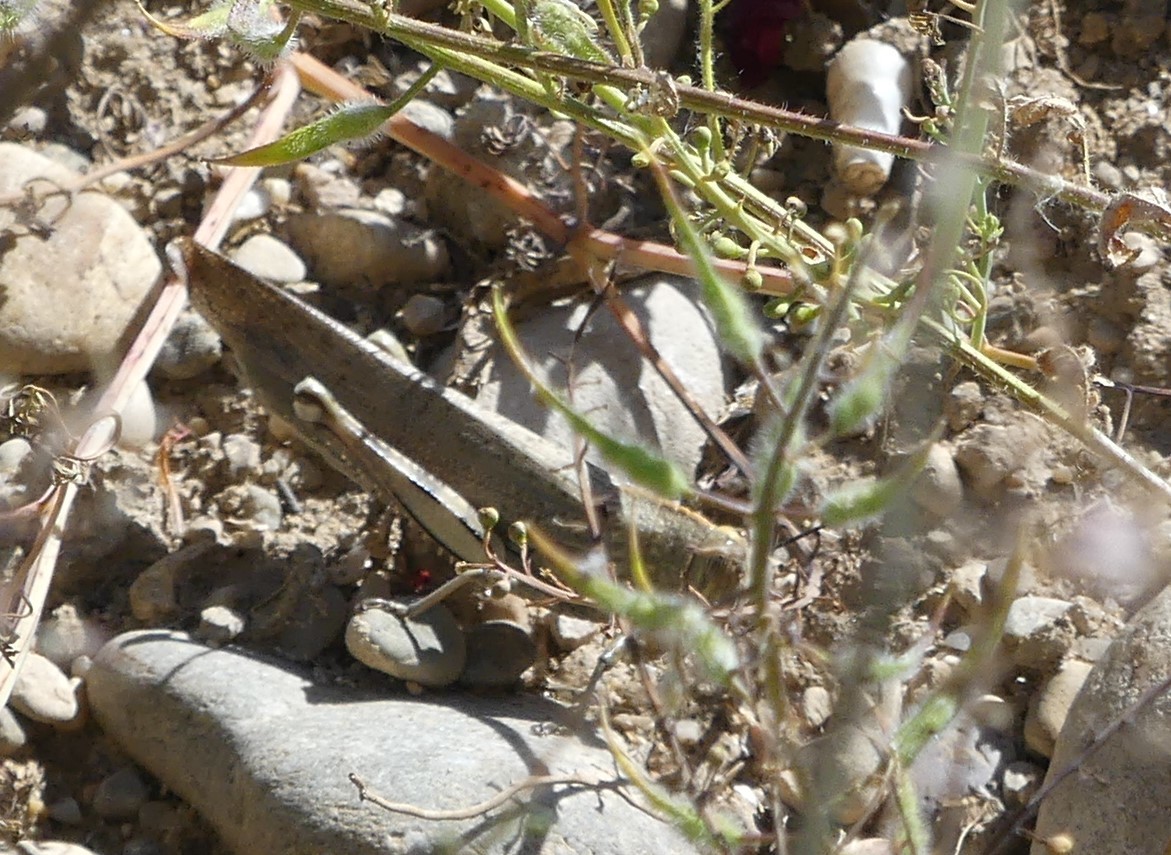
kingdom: Animalia
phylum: Arthropoda
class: Insecta
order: Orthoptera
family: Acrididae
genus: Anacridium
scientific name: Anacridium aegyptium
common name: Egyptian grasshopper
